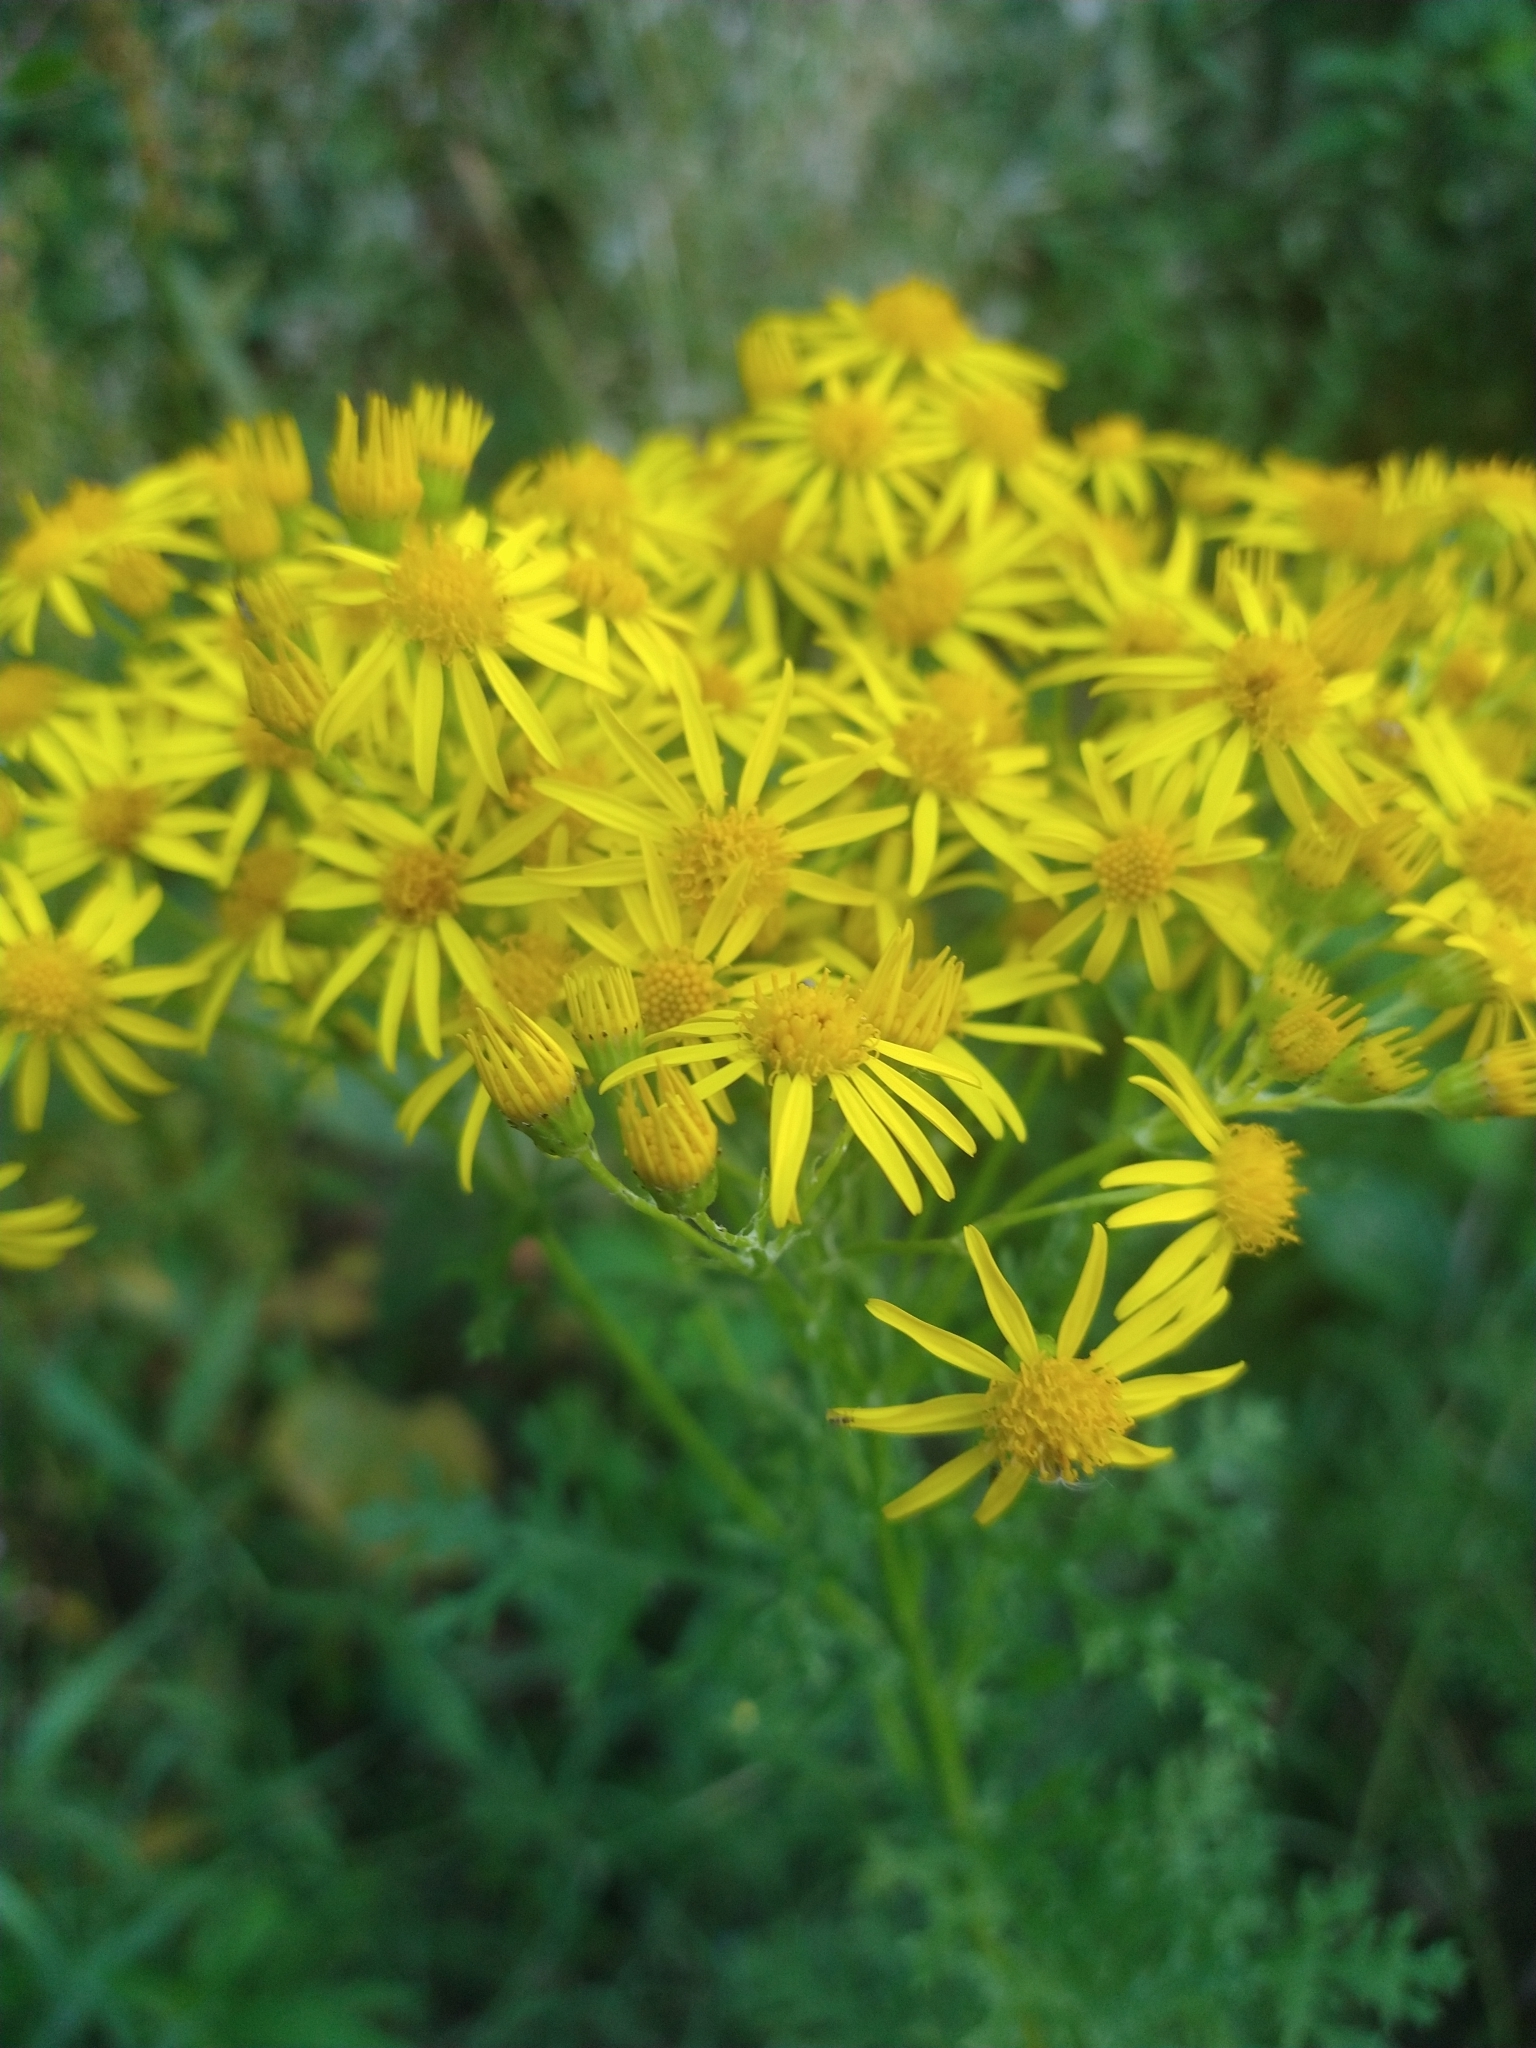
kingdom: Plantae
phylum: Tracheophyta
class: Magnoliopsida
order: Asterales
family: Asteraceae
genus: Jacobaea
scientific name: Jacobaea vulgaris
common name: Stinking willie
